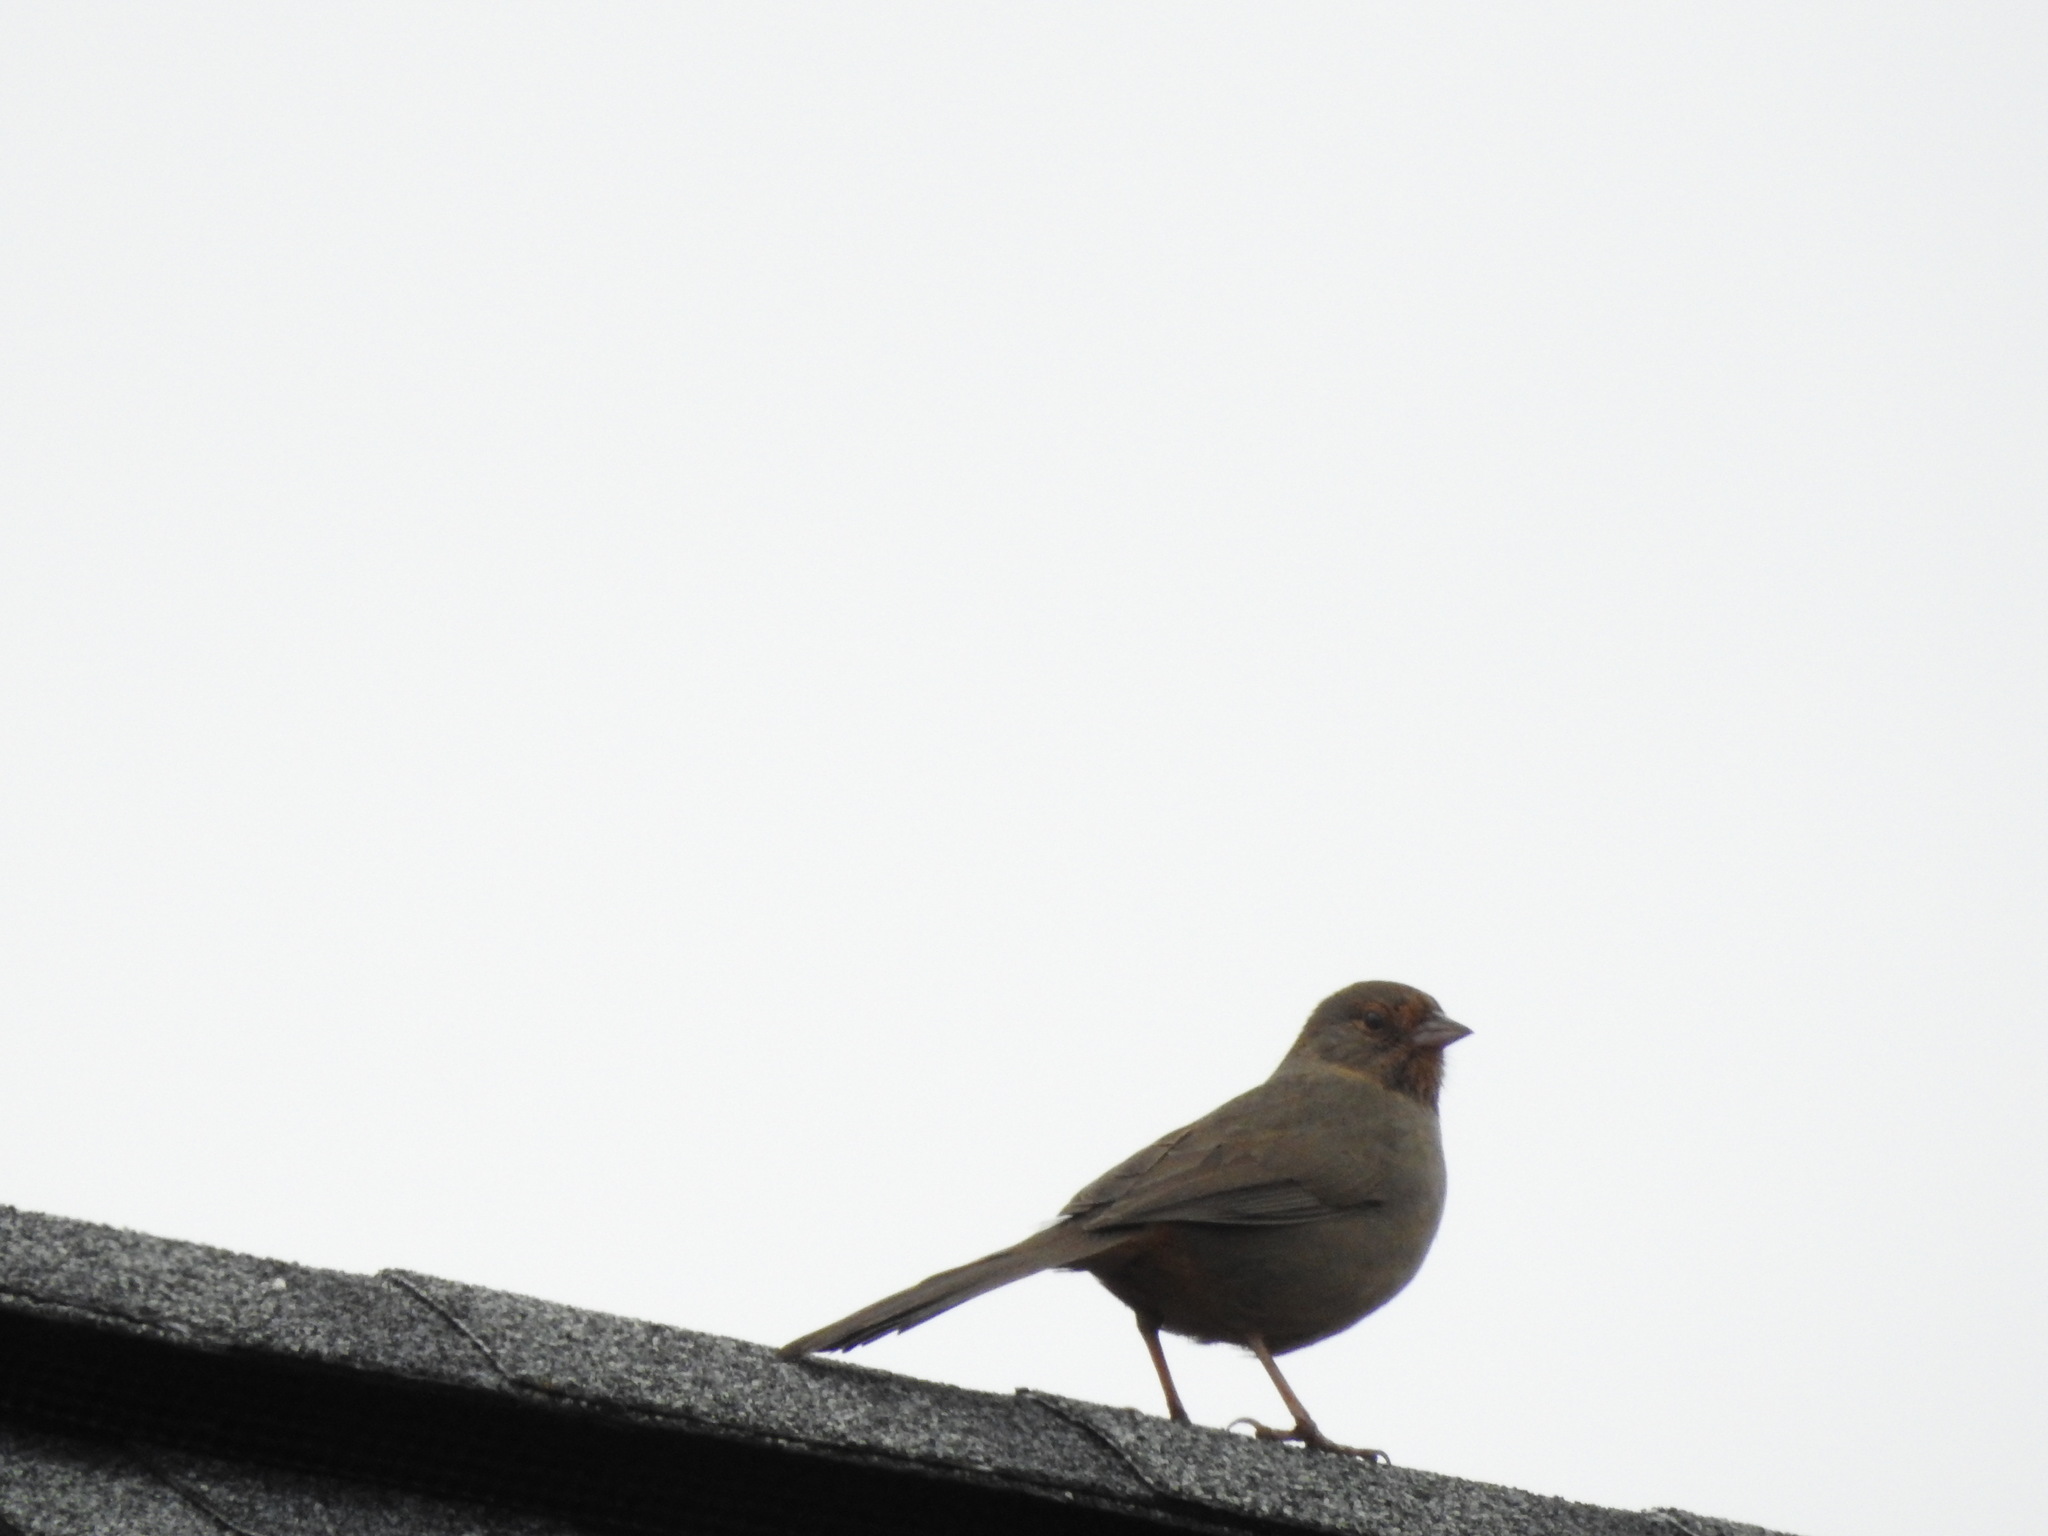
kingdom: Animalia
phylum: Chordata
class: Aves
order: Passeriformes
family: Passerellidae
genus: Melozone
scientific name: Melozone crissalis
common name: California towhee
